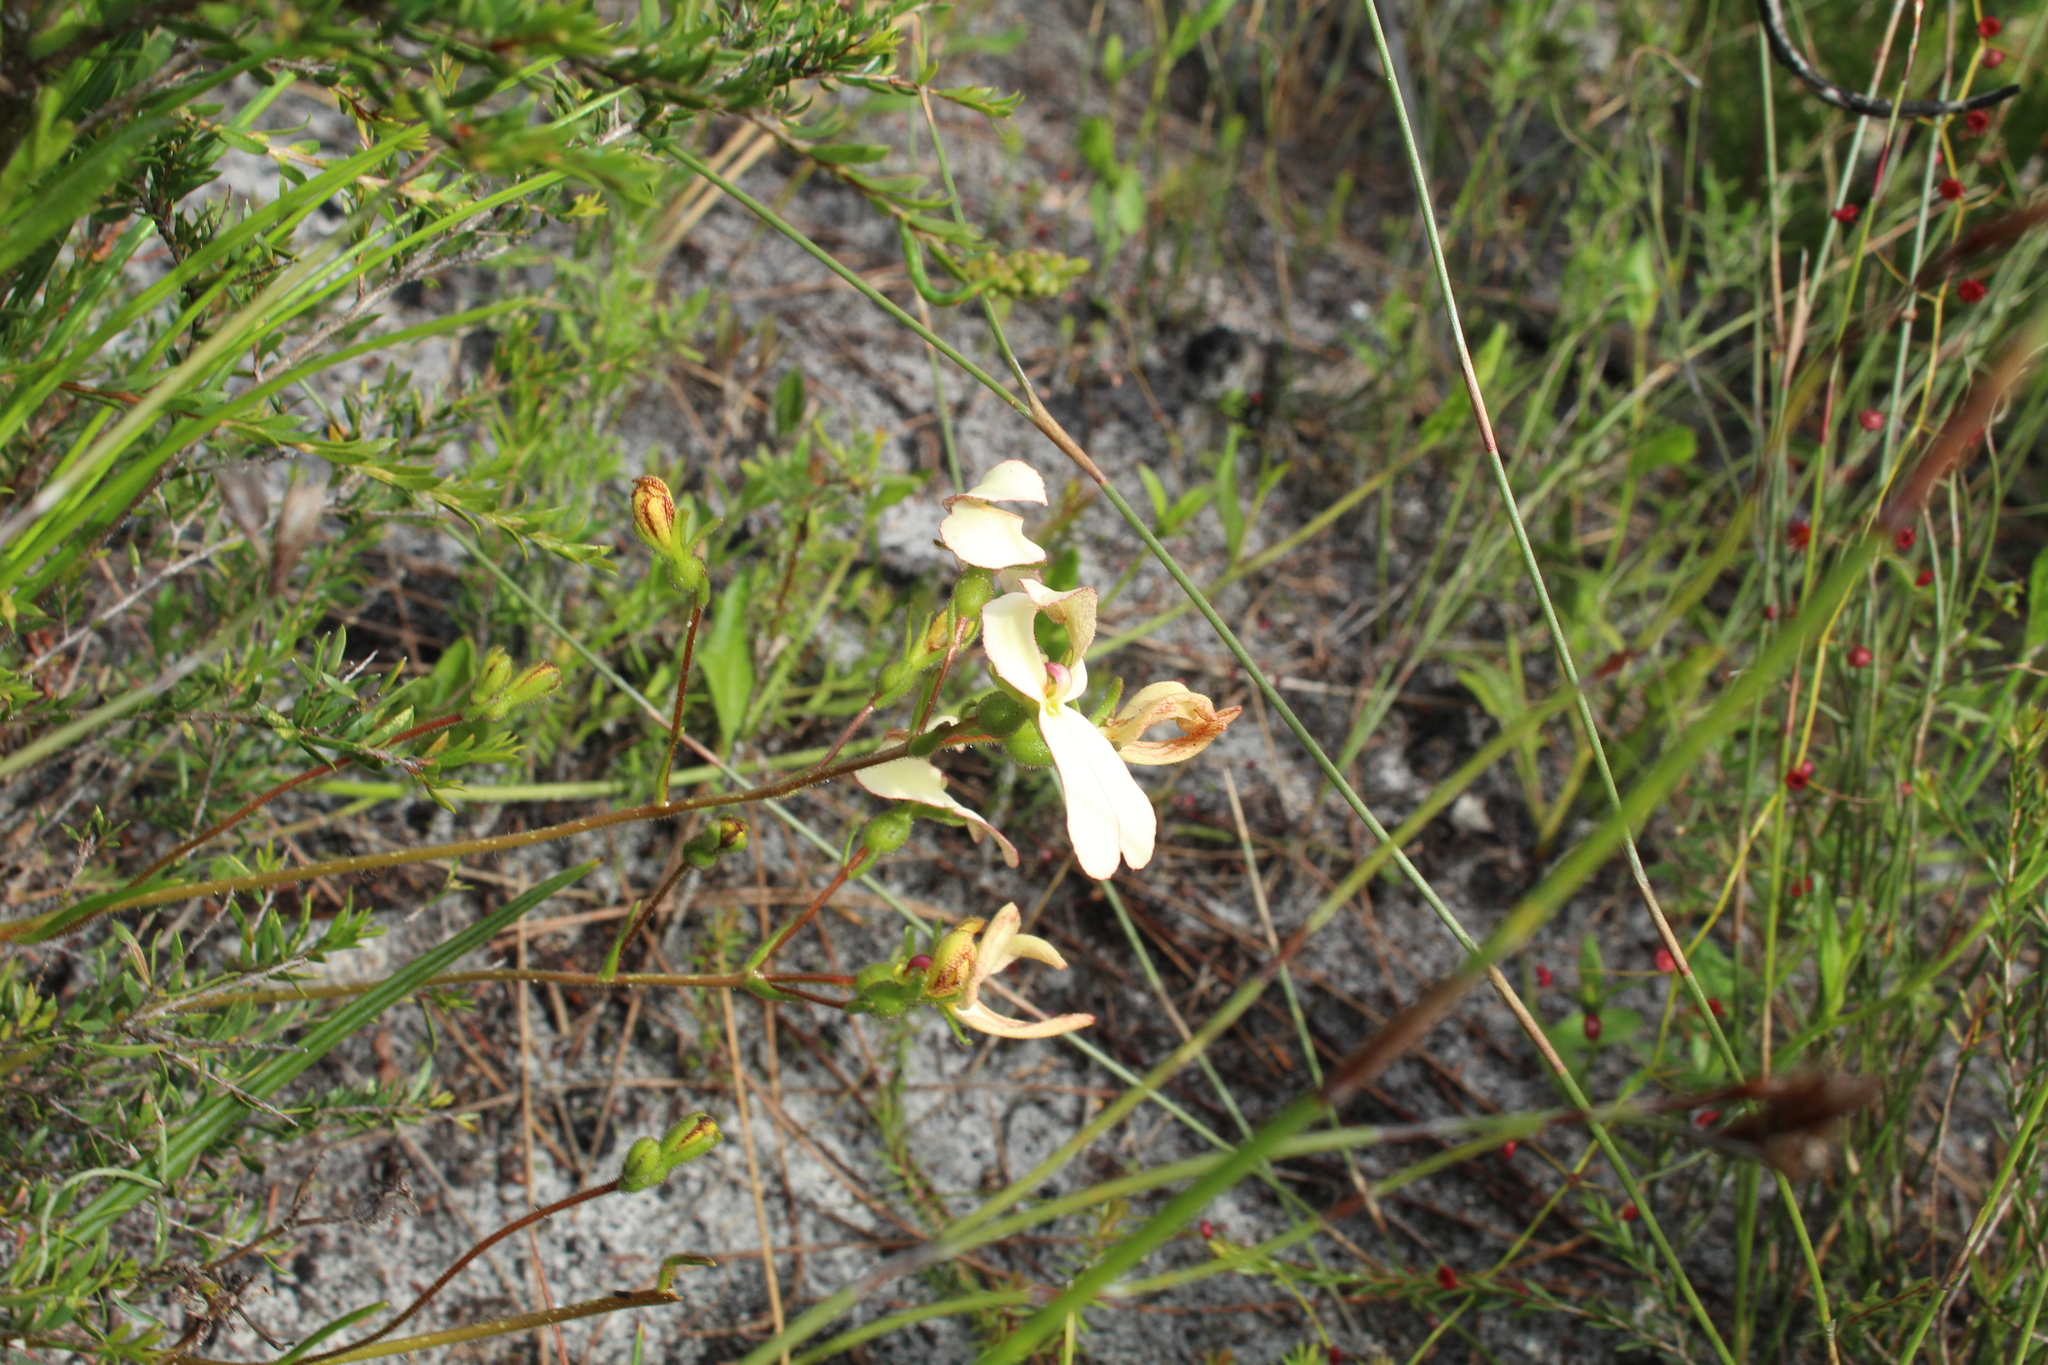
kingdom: Plantae
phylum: Tracheophyta
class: Magnoliopsida
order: Asterales
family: Stylidiaceae
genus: Stylidium
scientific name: Stylidium schoenoides
